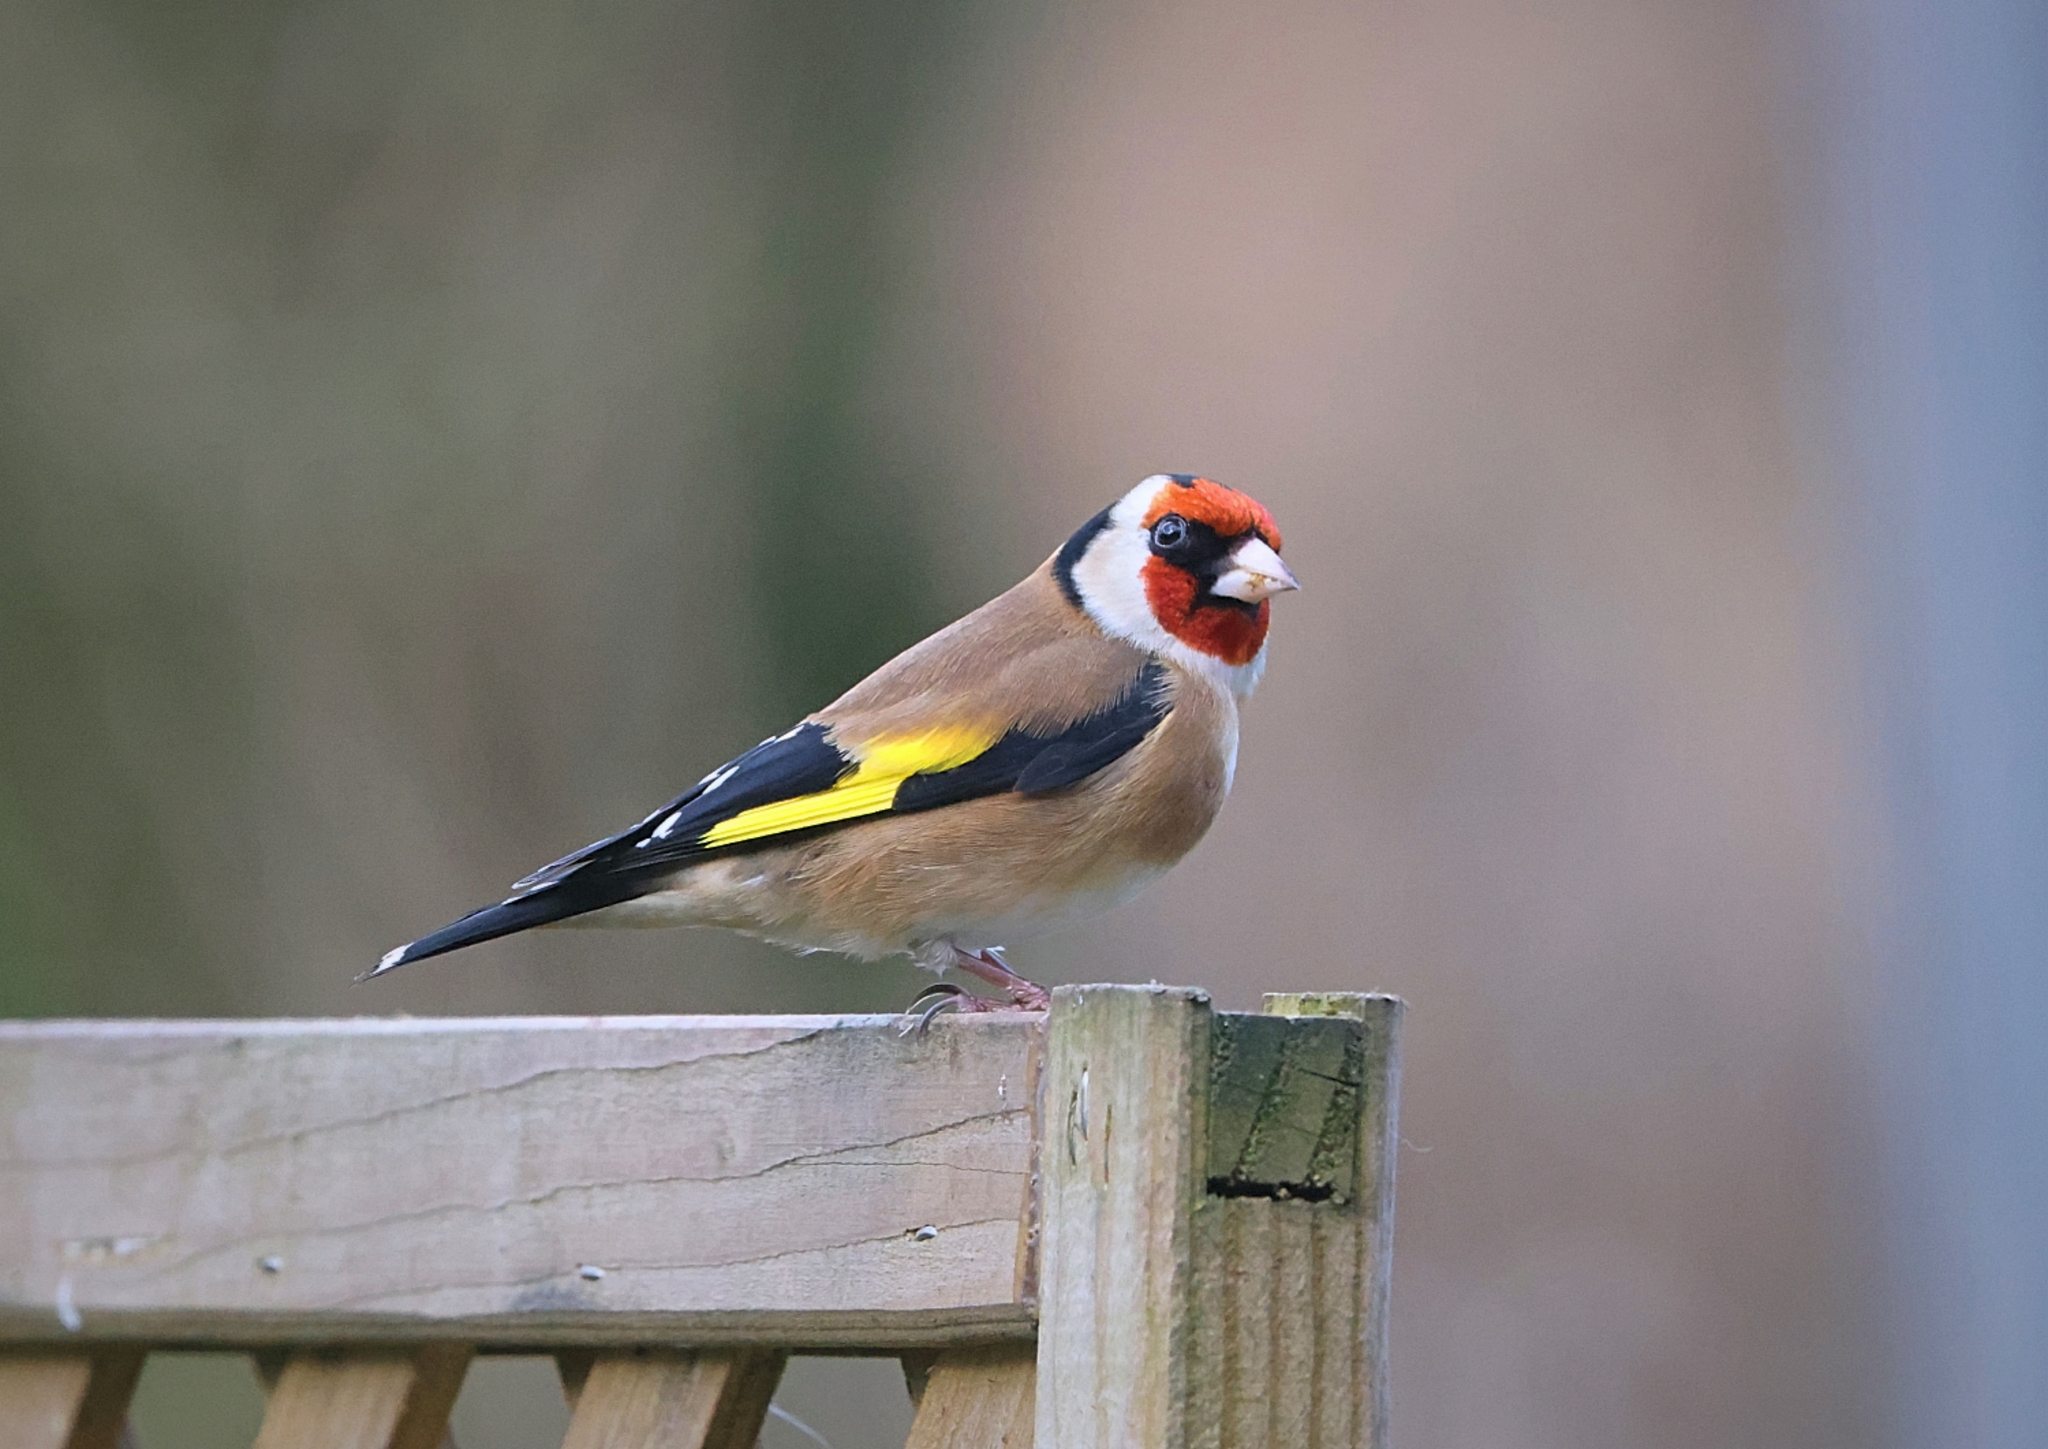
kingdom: Animalia
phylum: Chordata
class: Aves
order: Passeriformes
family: Fringillidae
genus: Carduelis
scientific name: Carduelis carduelis
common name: European goldfinch
